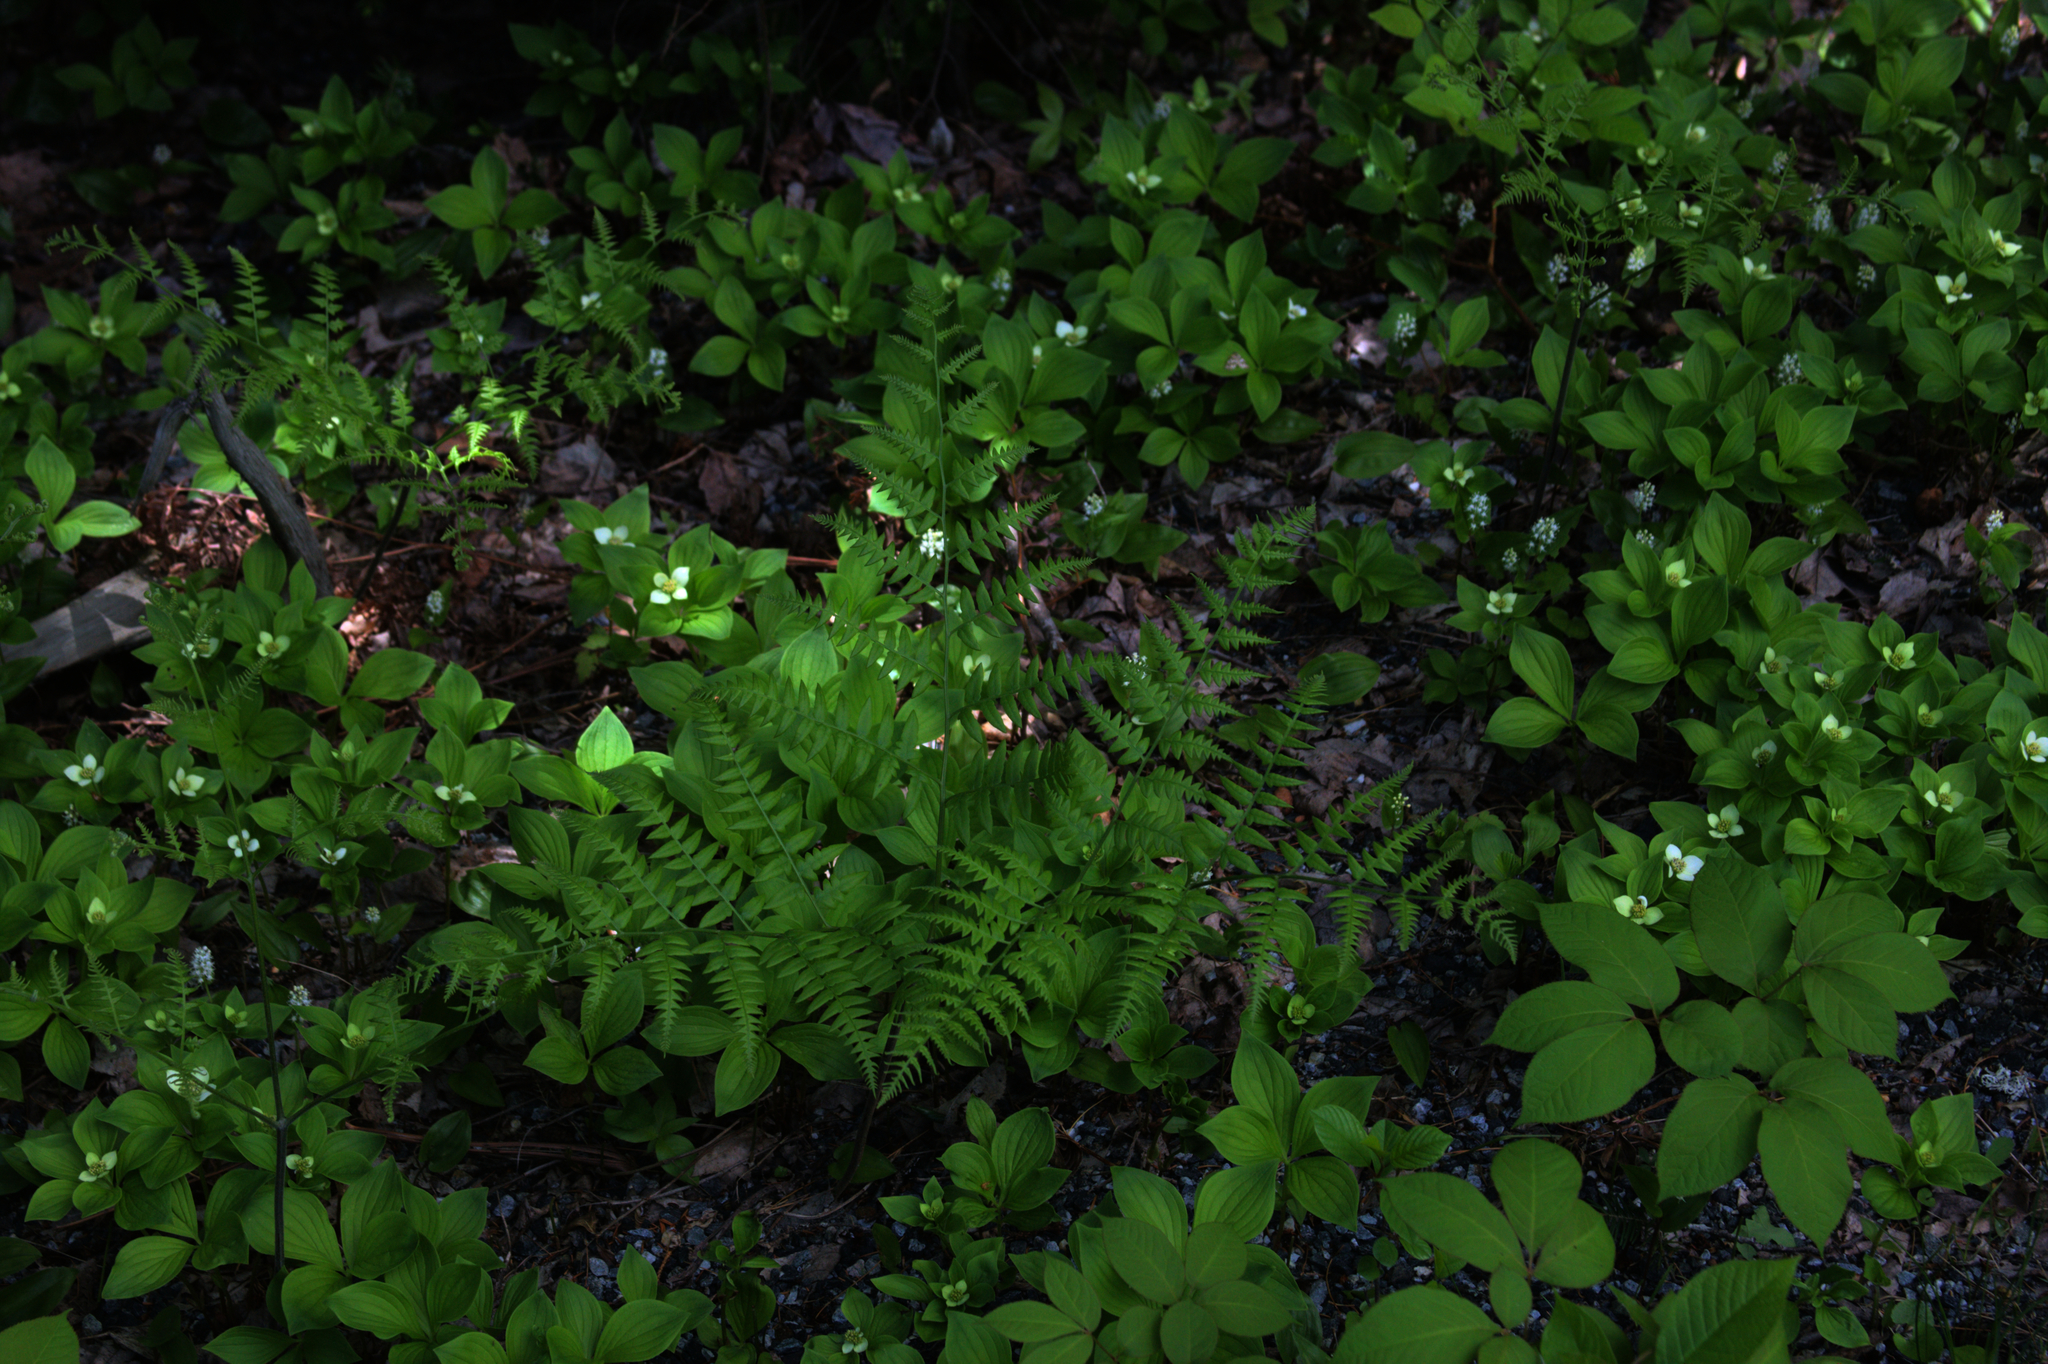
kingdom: Plantae
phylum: Tracheophyta
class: Magnoliopsida
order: Cornales
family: Cornaceae
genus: Cornus
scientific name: Cornus canadensis
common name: Creeping dogwood
